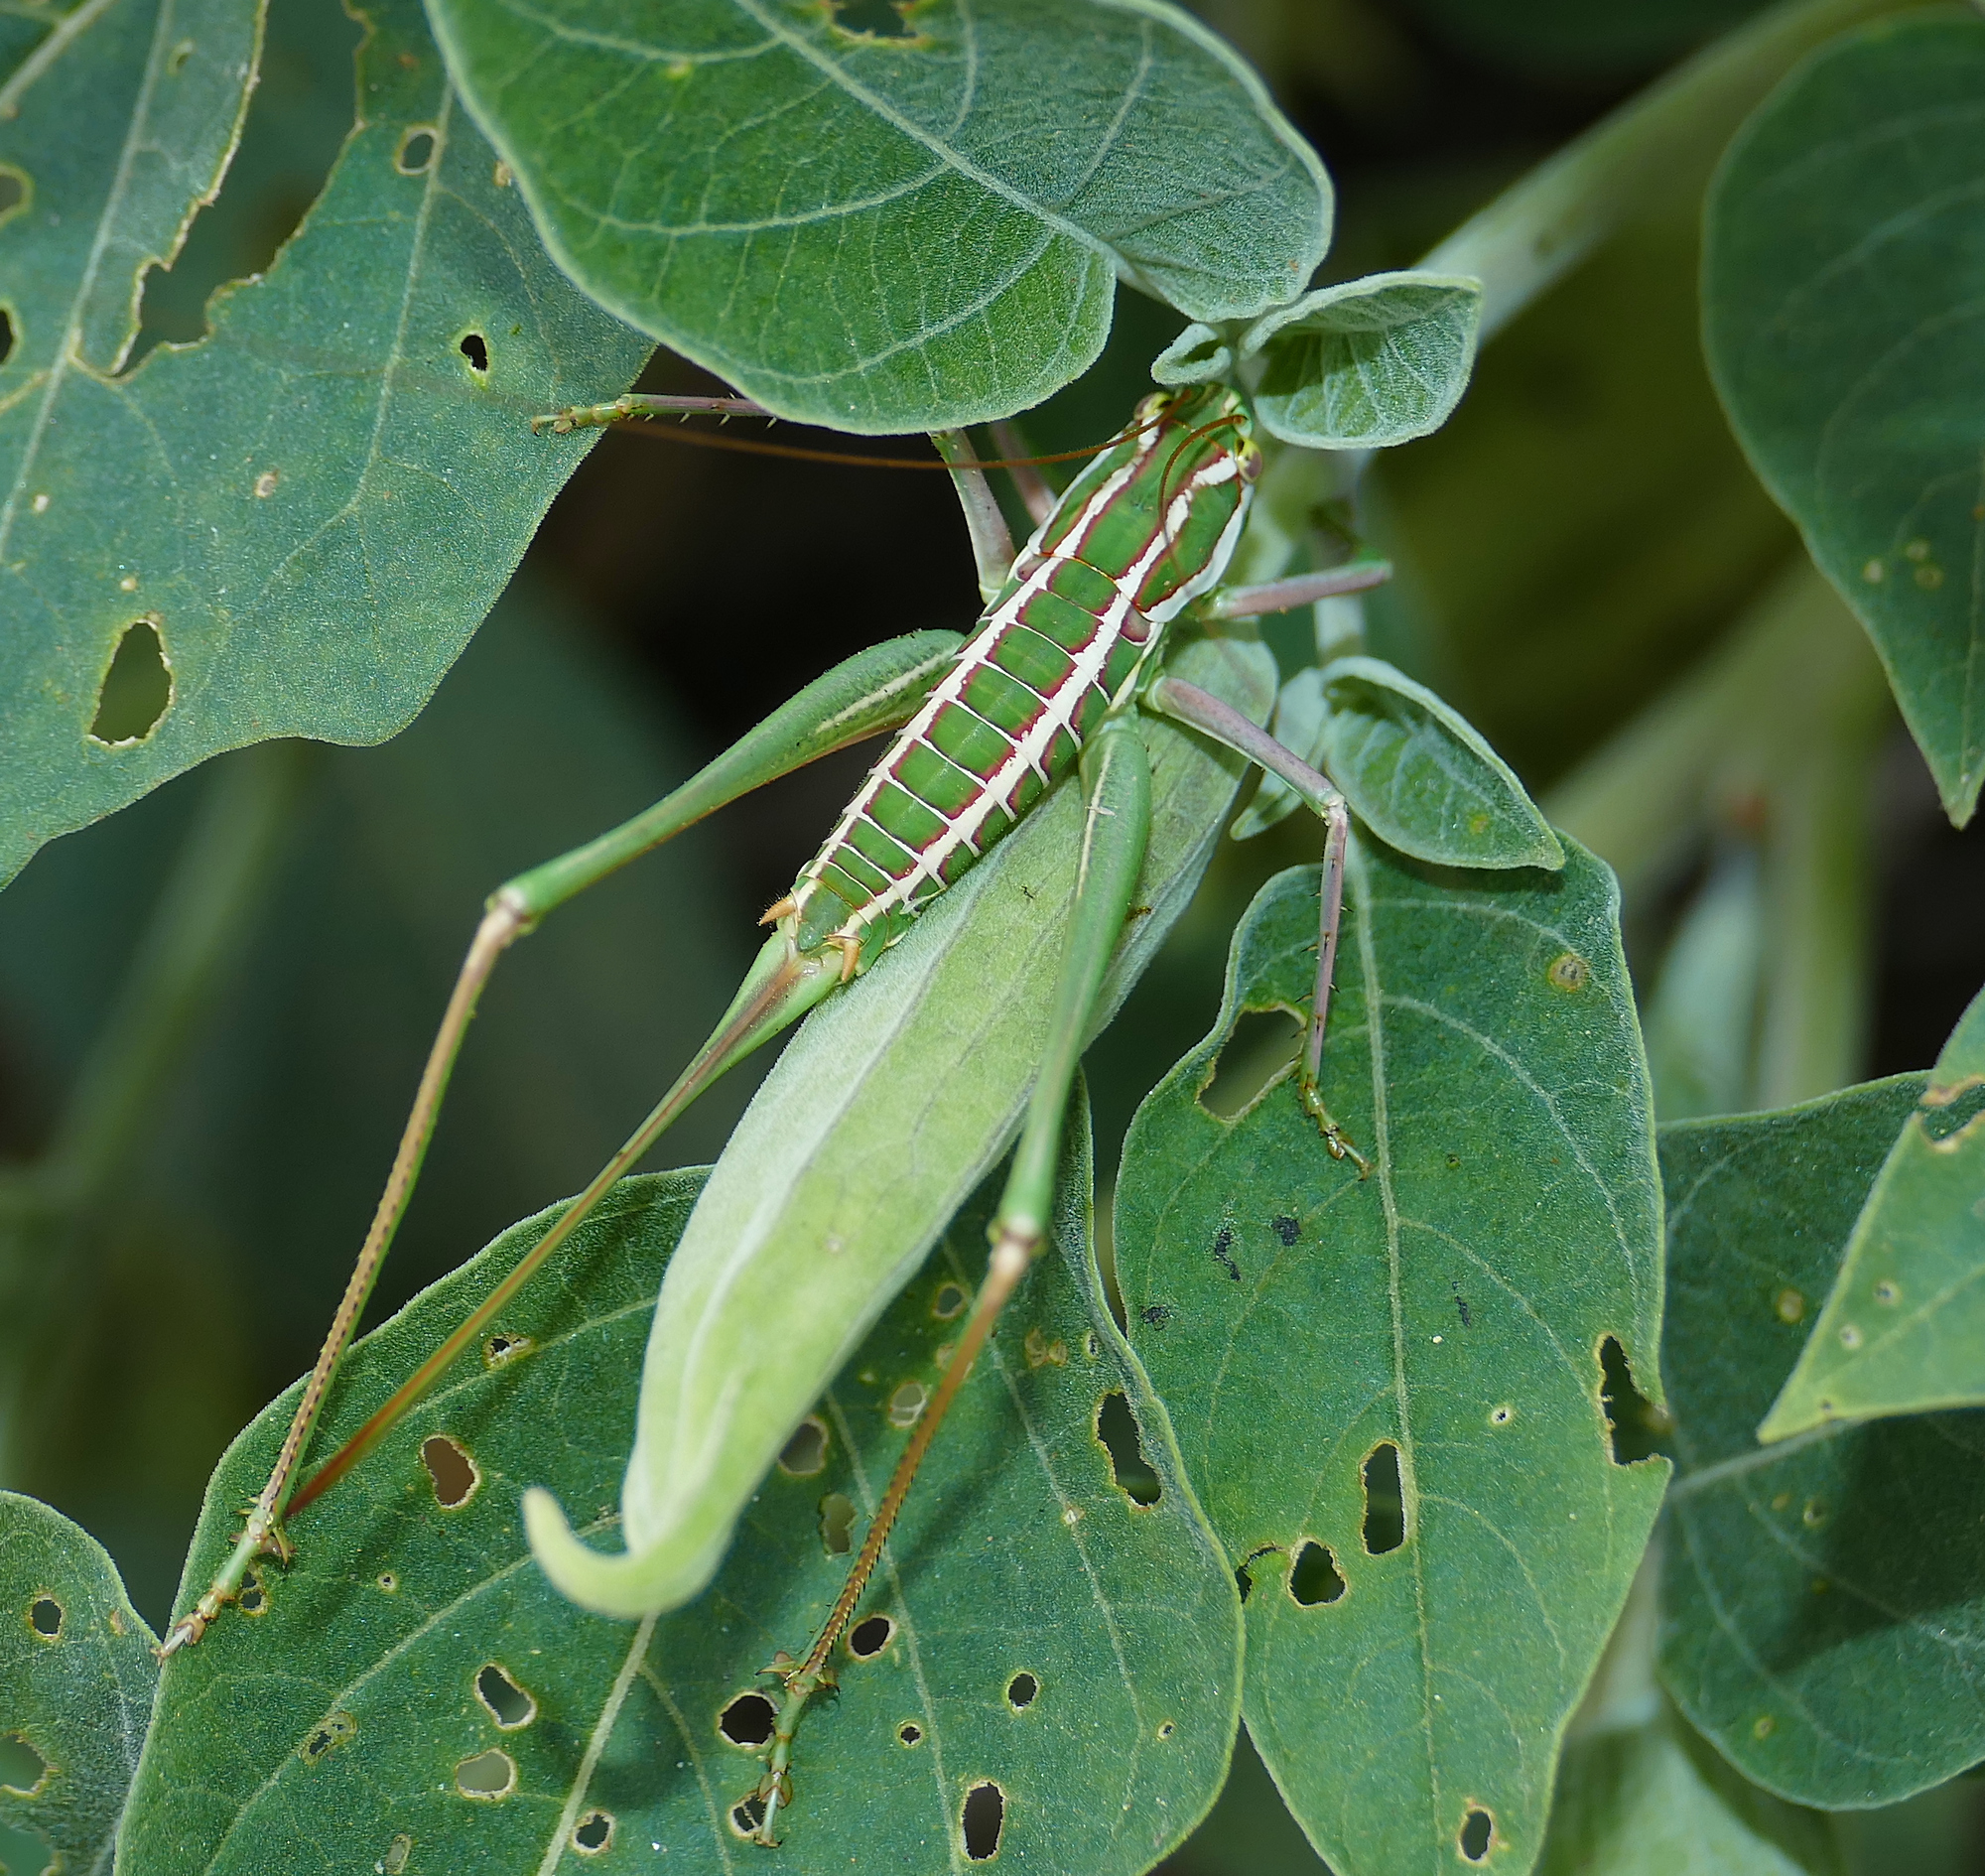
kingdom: Animalia
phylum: Arthropoda
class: Insecta
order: Orthoptera
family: Tettigoniidae
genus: Eremopedes
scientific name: Eremopedes bilineatus
